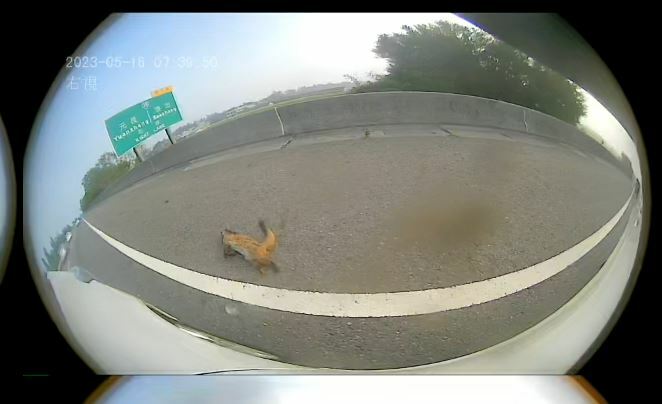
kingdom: Animalia
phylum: Chordata
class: Mammalia
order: Carnivora
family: Viverridae
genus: Paguma
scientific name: Paguma larvata
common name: Masked palm civet
